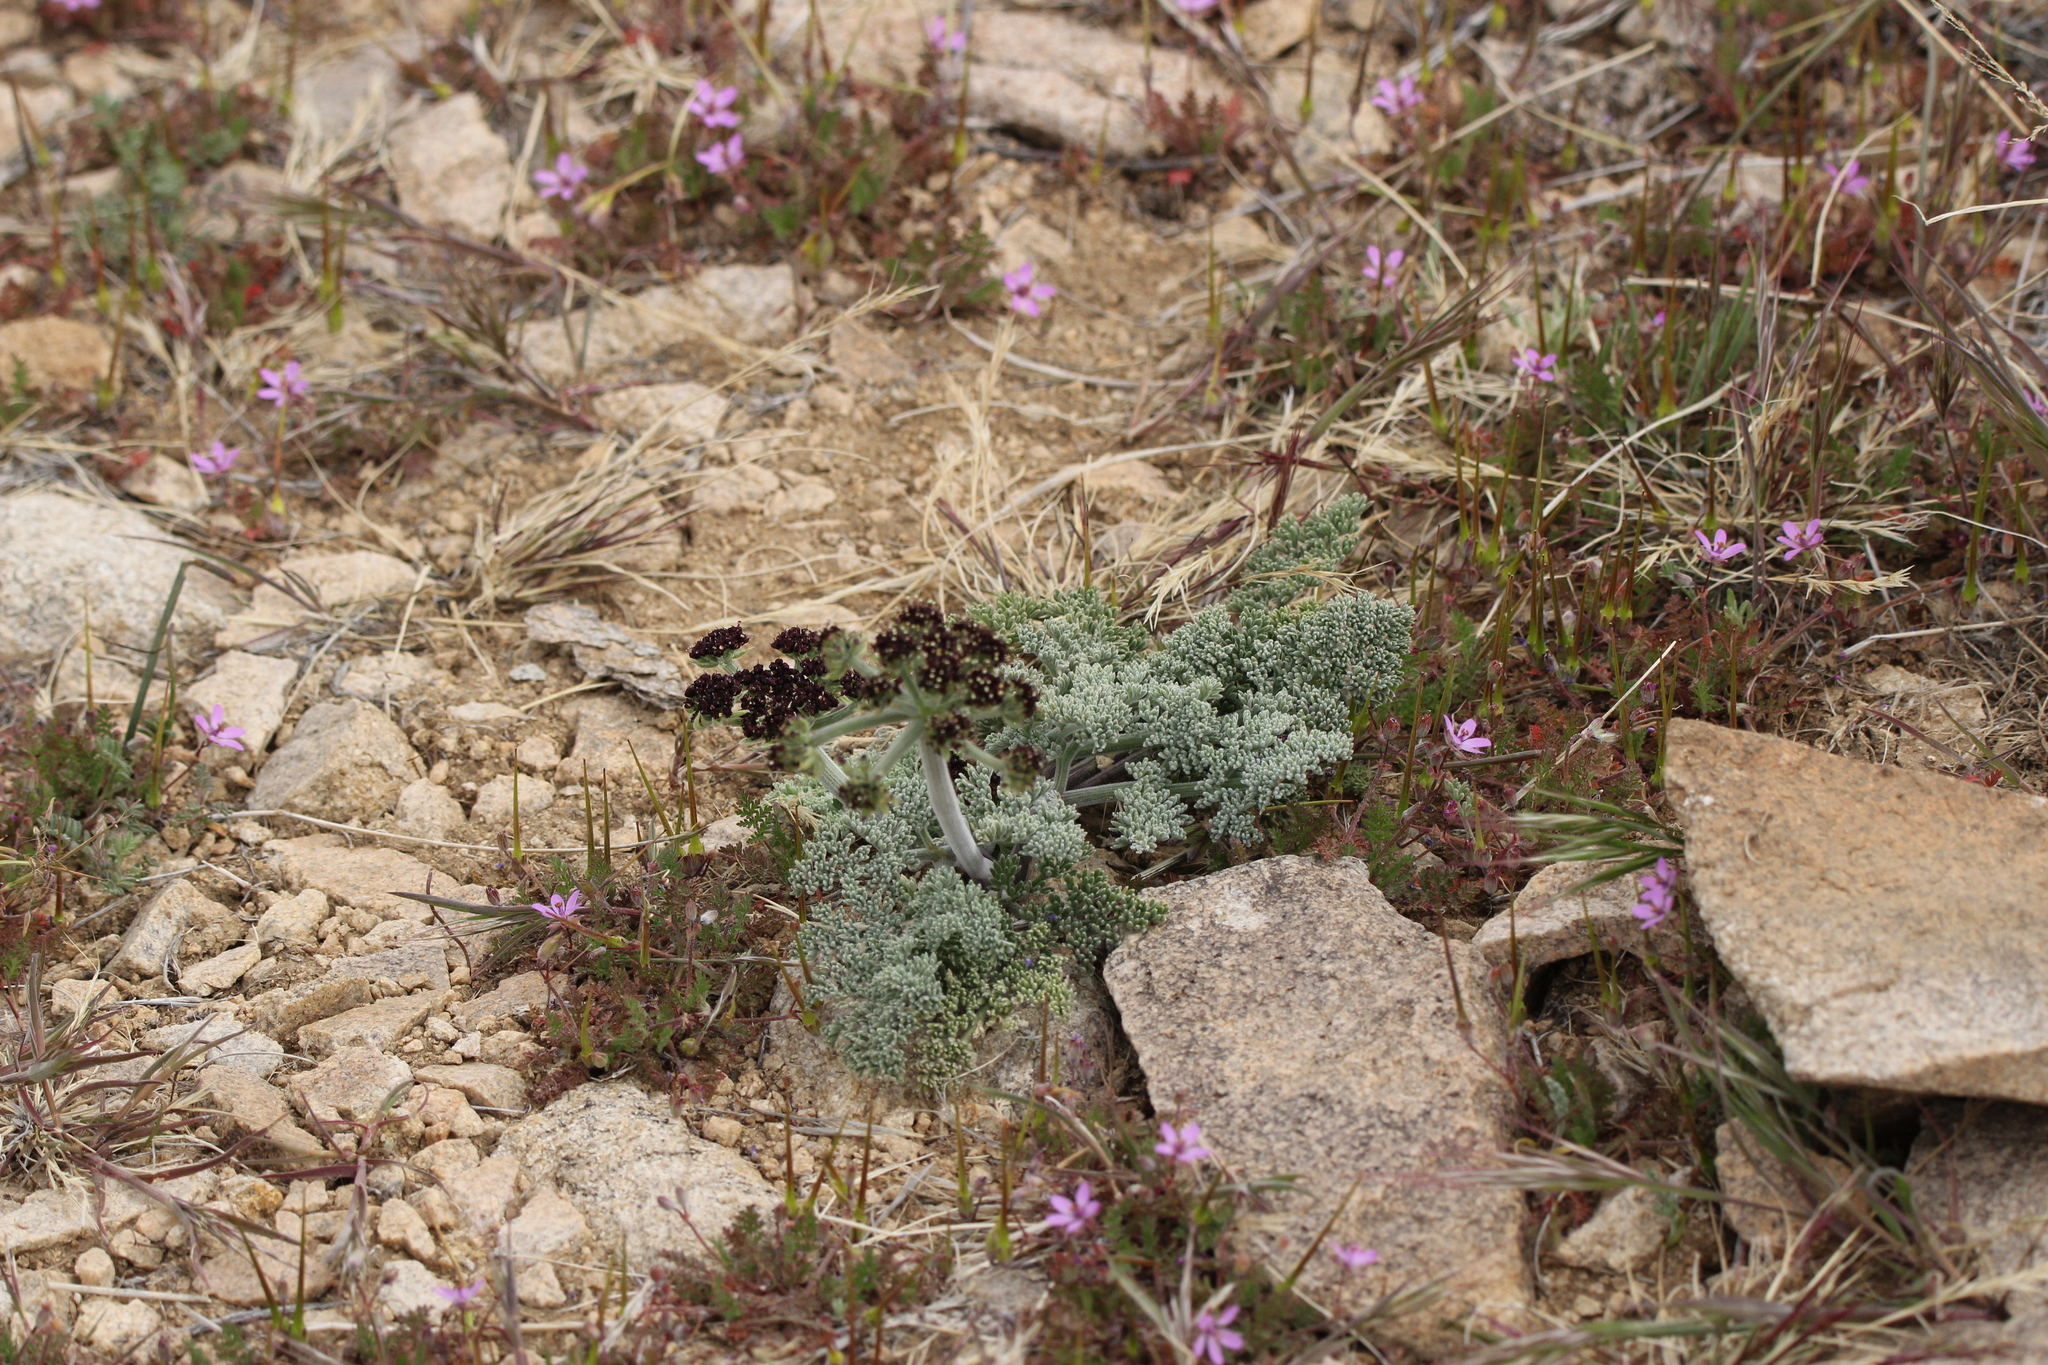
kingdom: Plantae
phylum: Tracheophyta
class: Magnoliopsida
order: Apiales
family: Apiaceae
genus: Lomatium
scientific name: Lomatium mohavense
